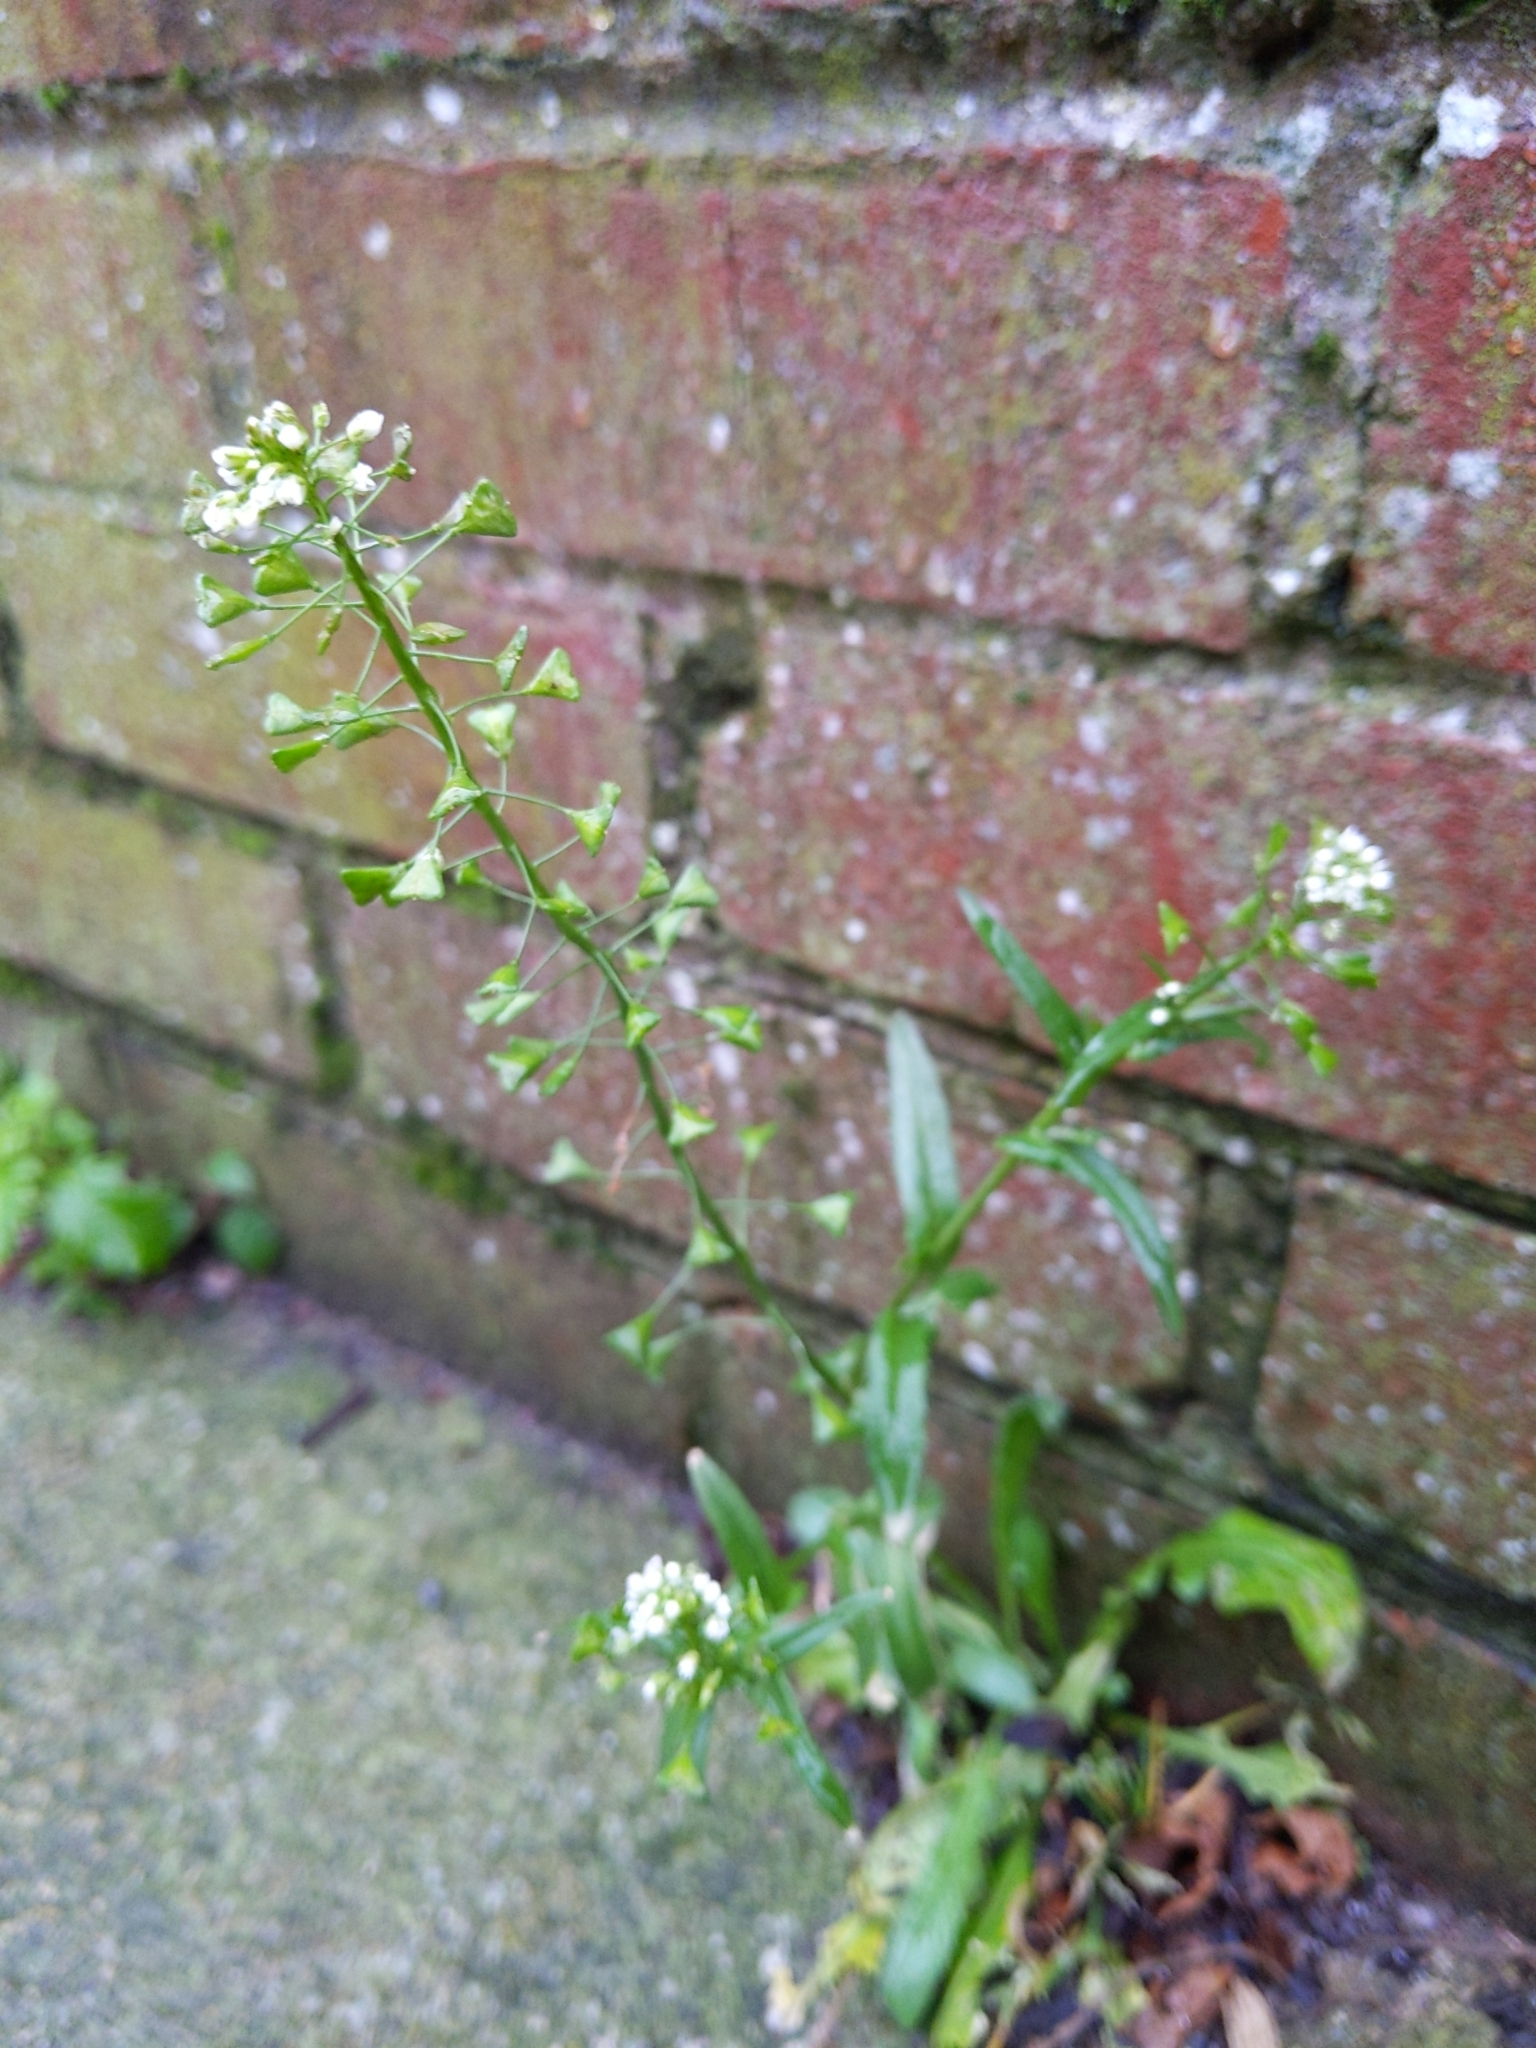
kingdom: Plantae
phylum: Tracheophyta
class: Magnoliopsida
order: Brassicales
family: Brassicaceae
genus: Capsella
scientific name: Capsella bursa-pastoris
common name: Shepherd's purse
